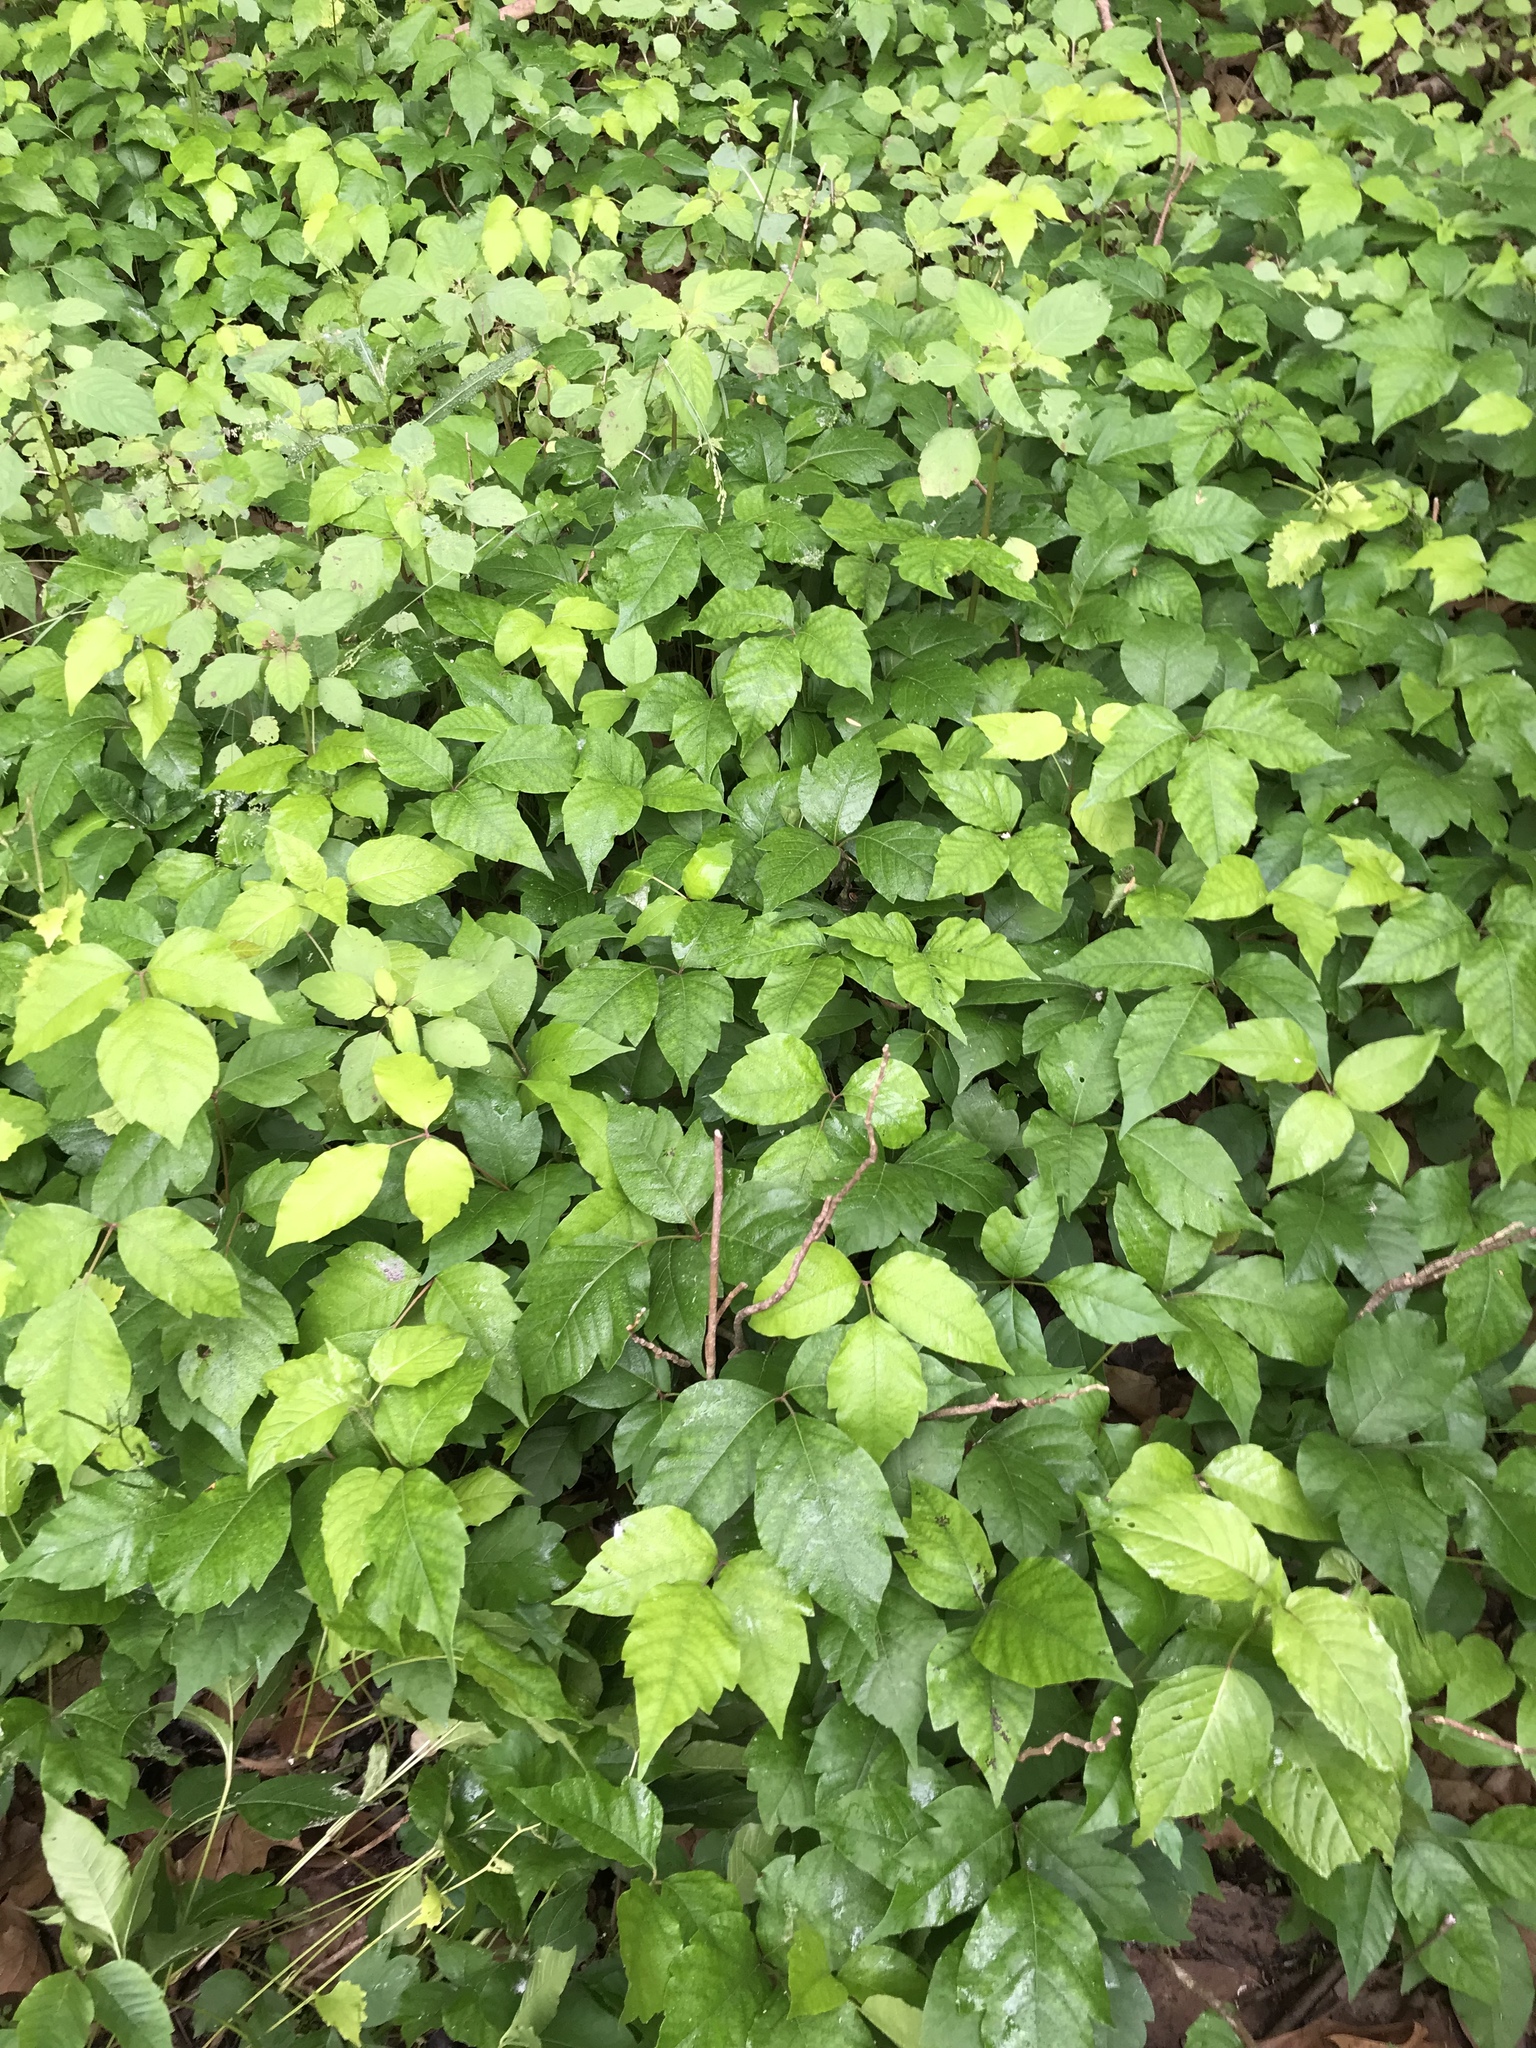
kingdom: Plantae
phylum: Tracheophyta
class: Magnoliopsida
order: Sapindales
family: Anacardiaceae
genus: Toxicodendron
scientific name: Toxicodendron radicans
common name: Poison ivy
